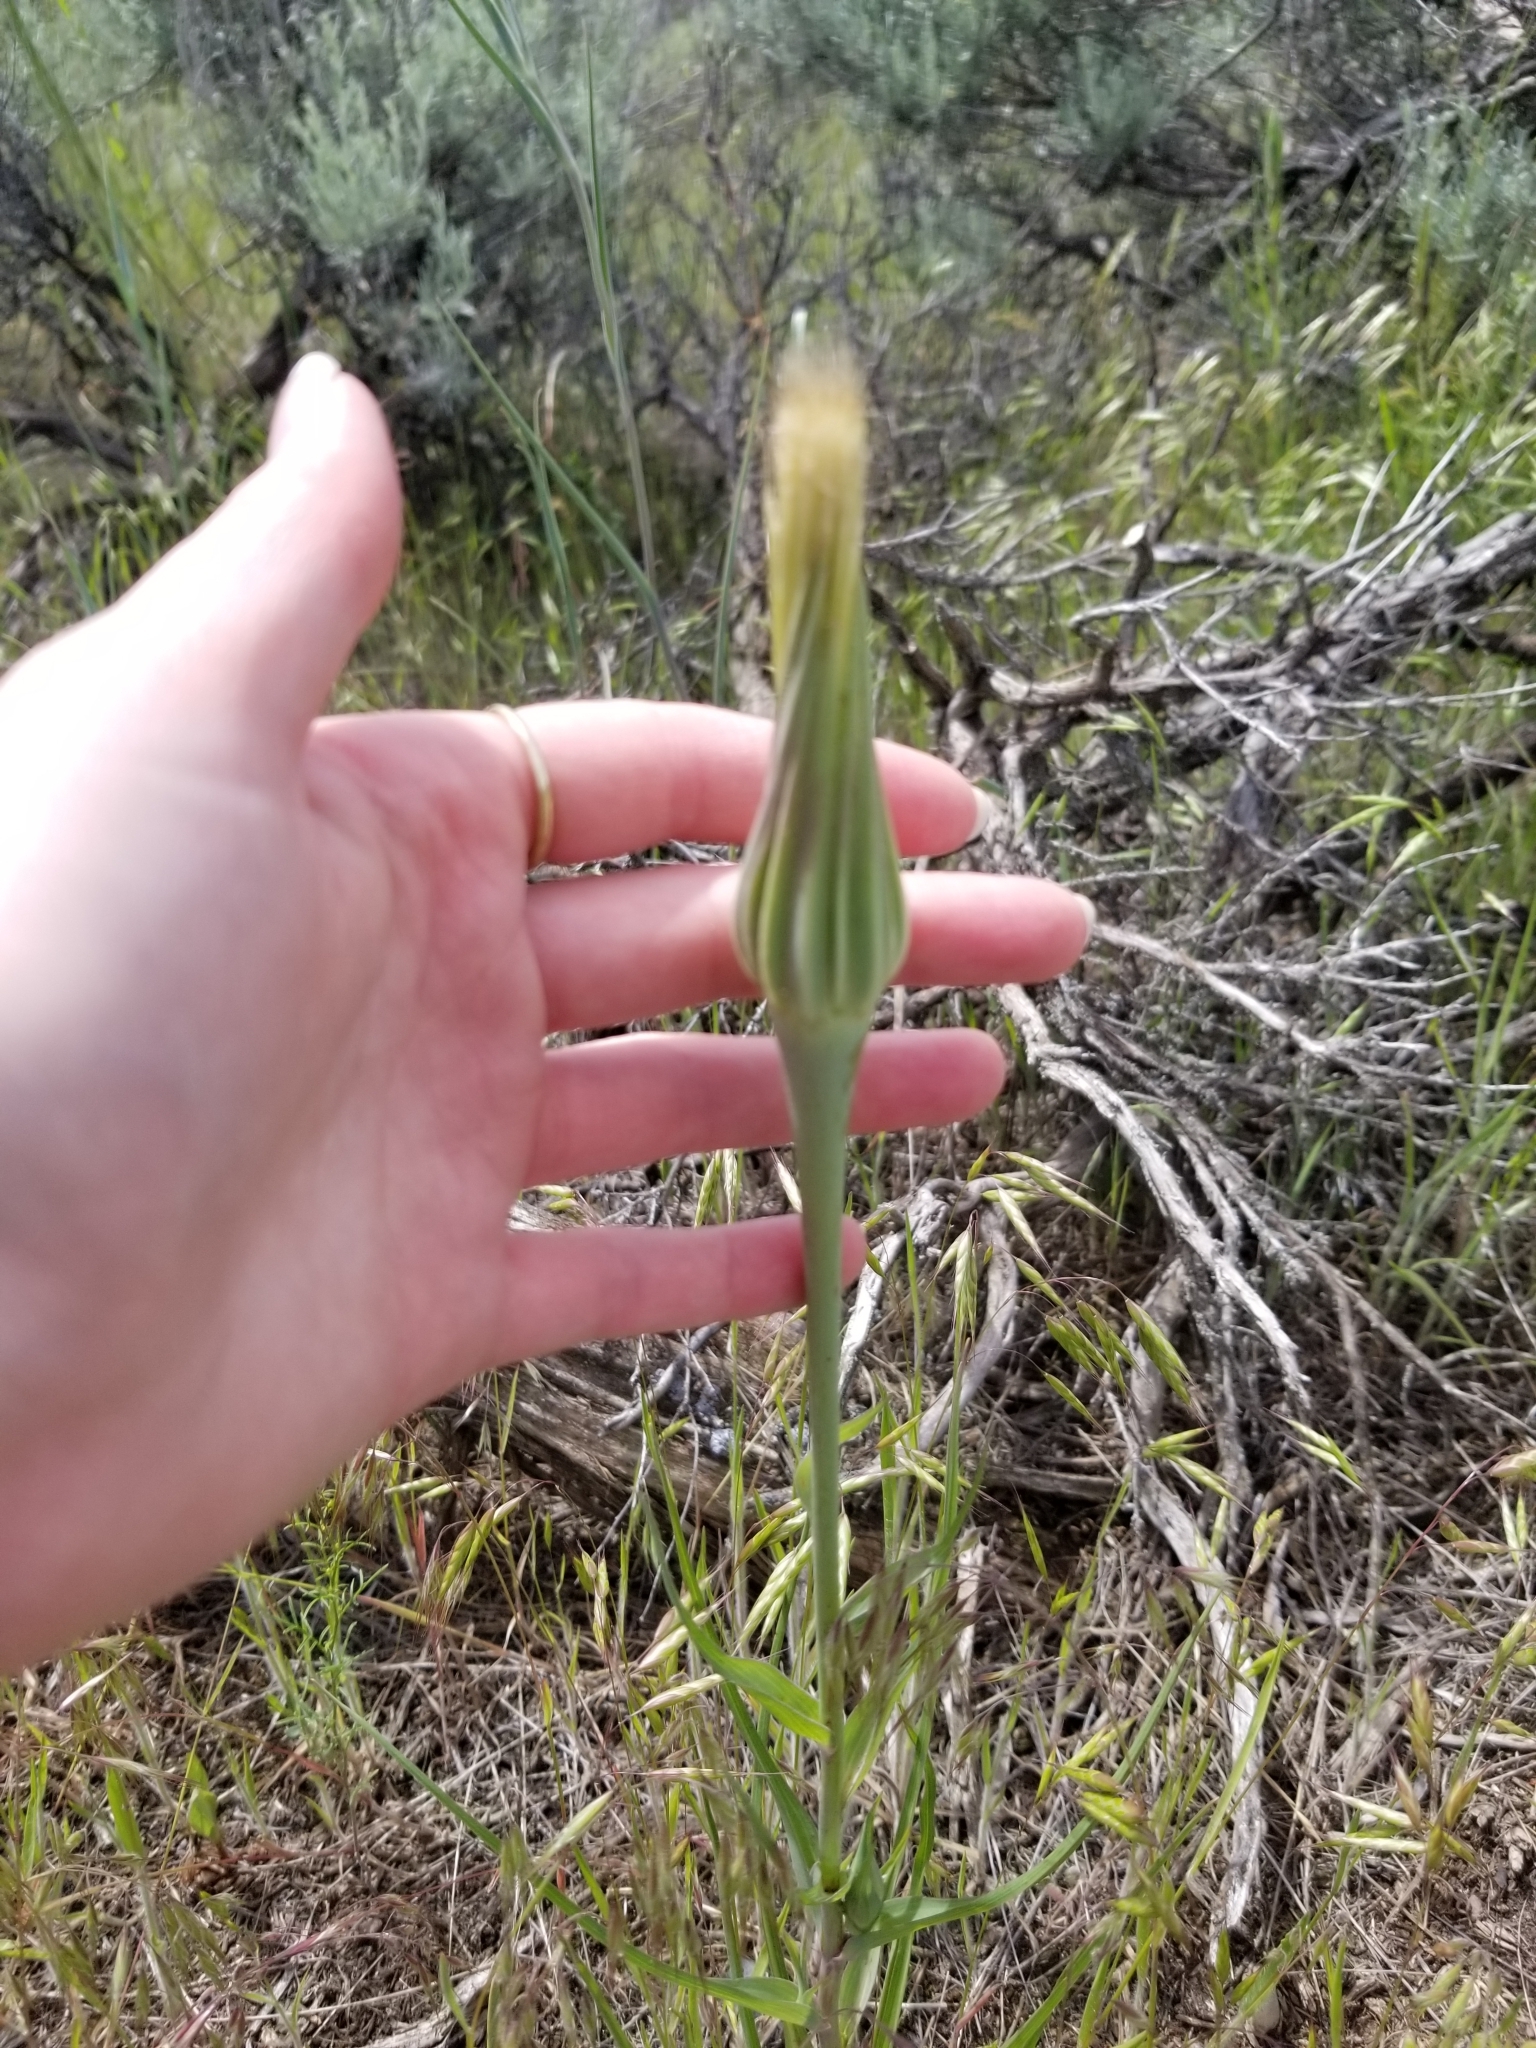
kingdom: Plantae
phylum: Tracheophyta
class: Magnoliopsida
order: Asterales
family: Asteraceae
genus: Tragopogon
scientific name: Tragopogon dubius
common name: Yellow salsify
